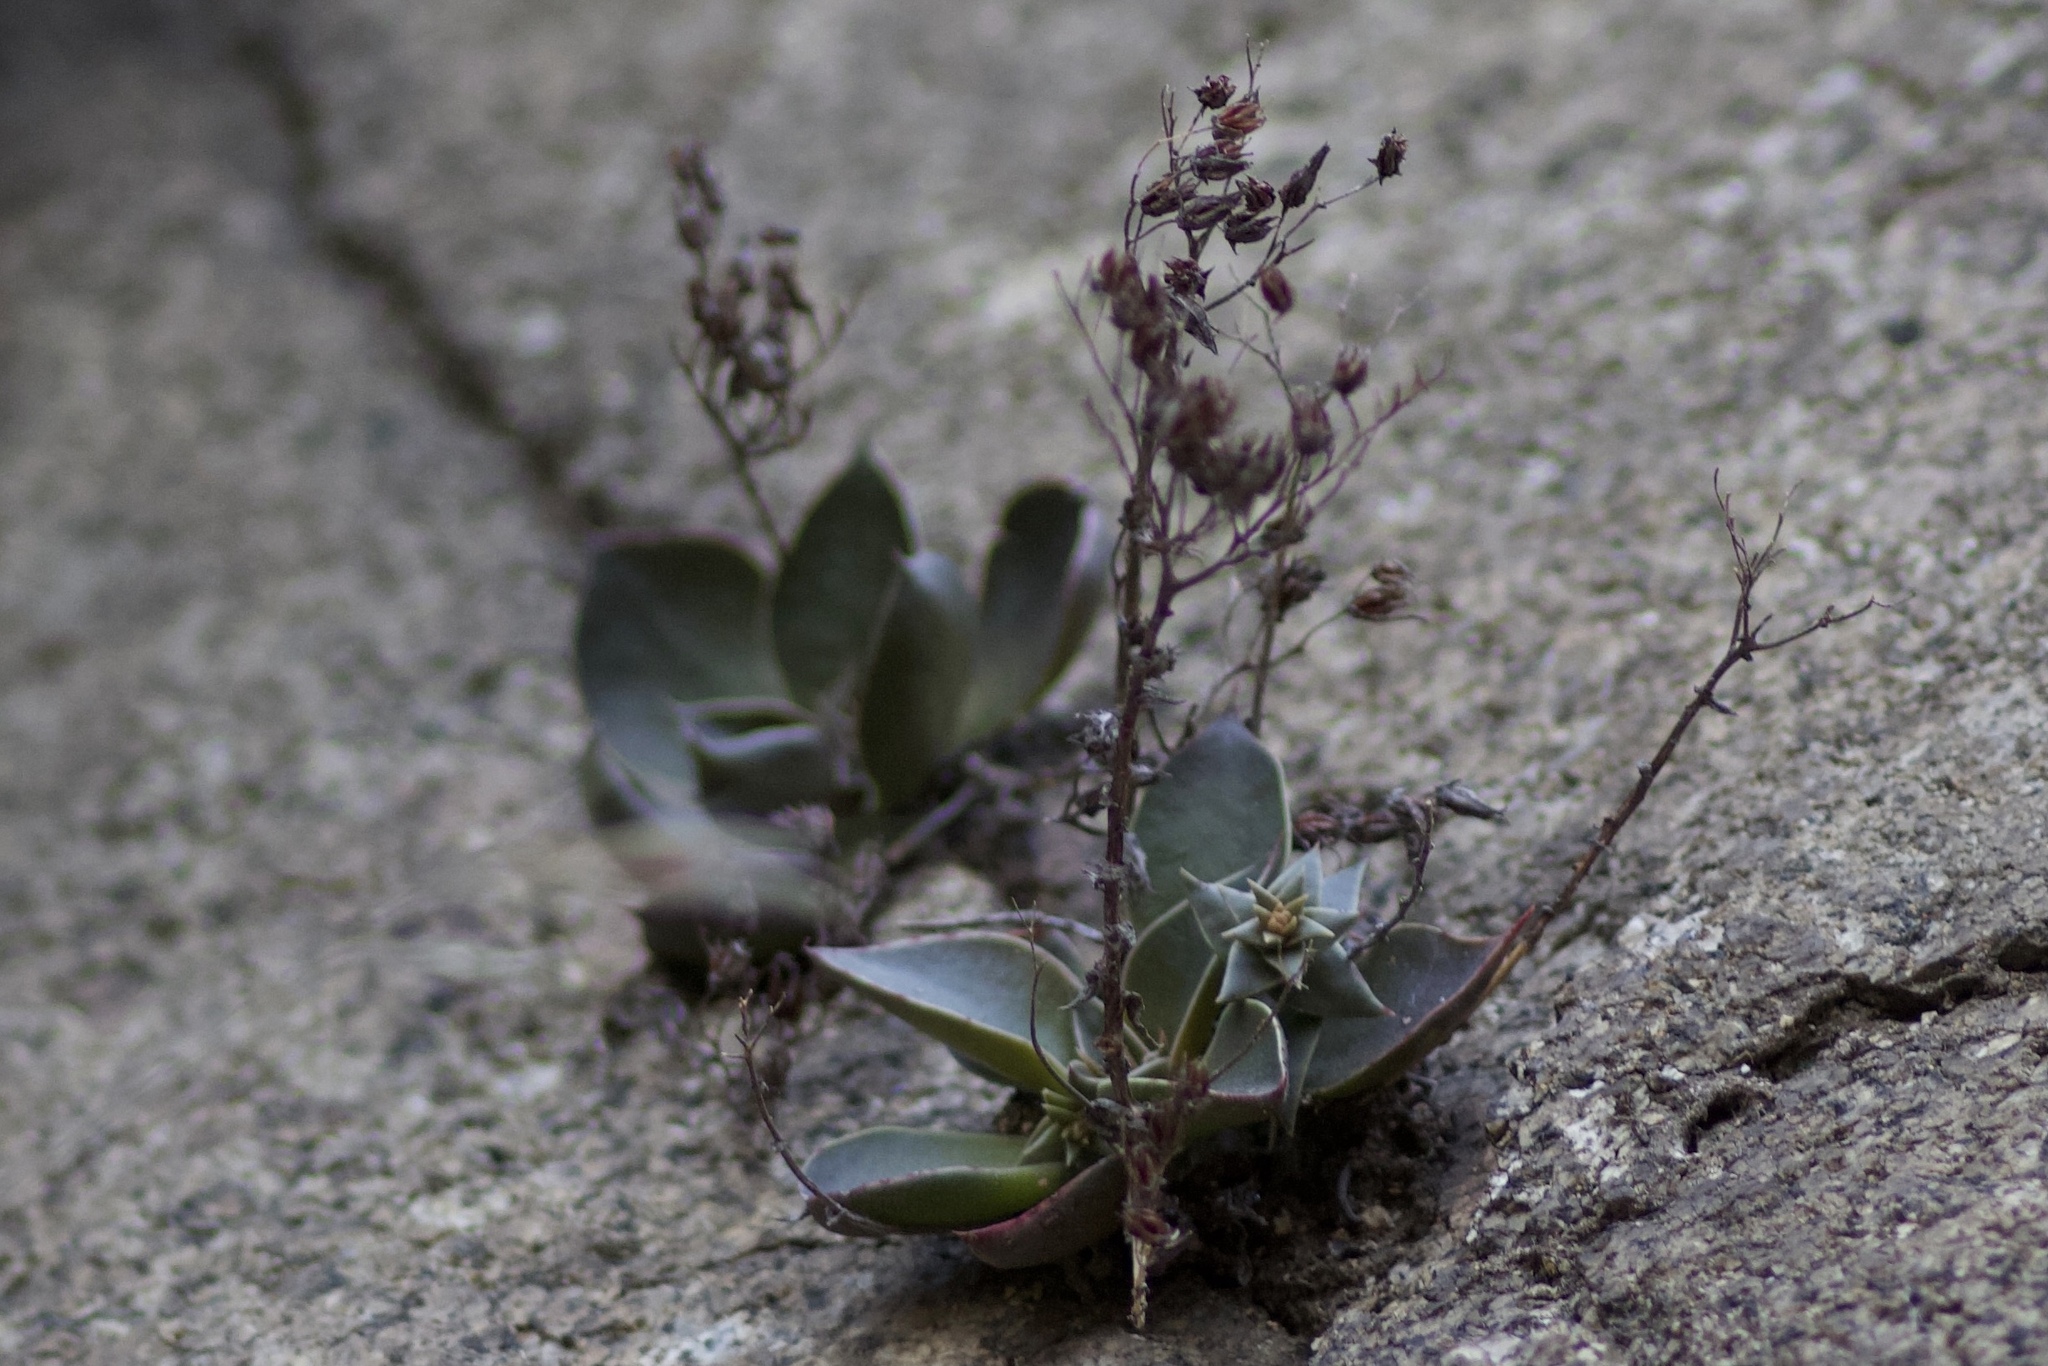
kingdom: Plantae
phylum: Tracheophyta
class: Magnoliopsida
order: Saxifragales
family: Crassulaceae
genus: Dudleya
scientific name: Dudleya cymosa
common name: Canyon dudleya
